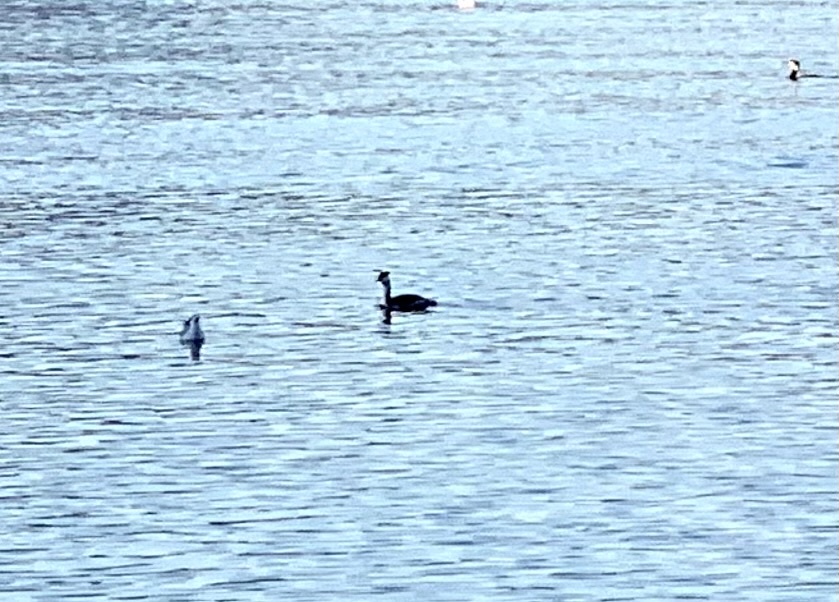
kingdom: Animalia
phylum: Chordata
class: Aves
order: Podicipediformes
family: Podicipedidae
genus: Podiceps
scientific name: Podiceps cristatus
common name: Great crested grebe
